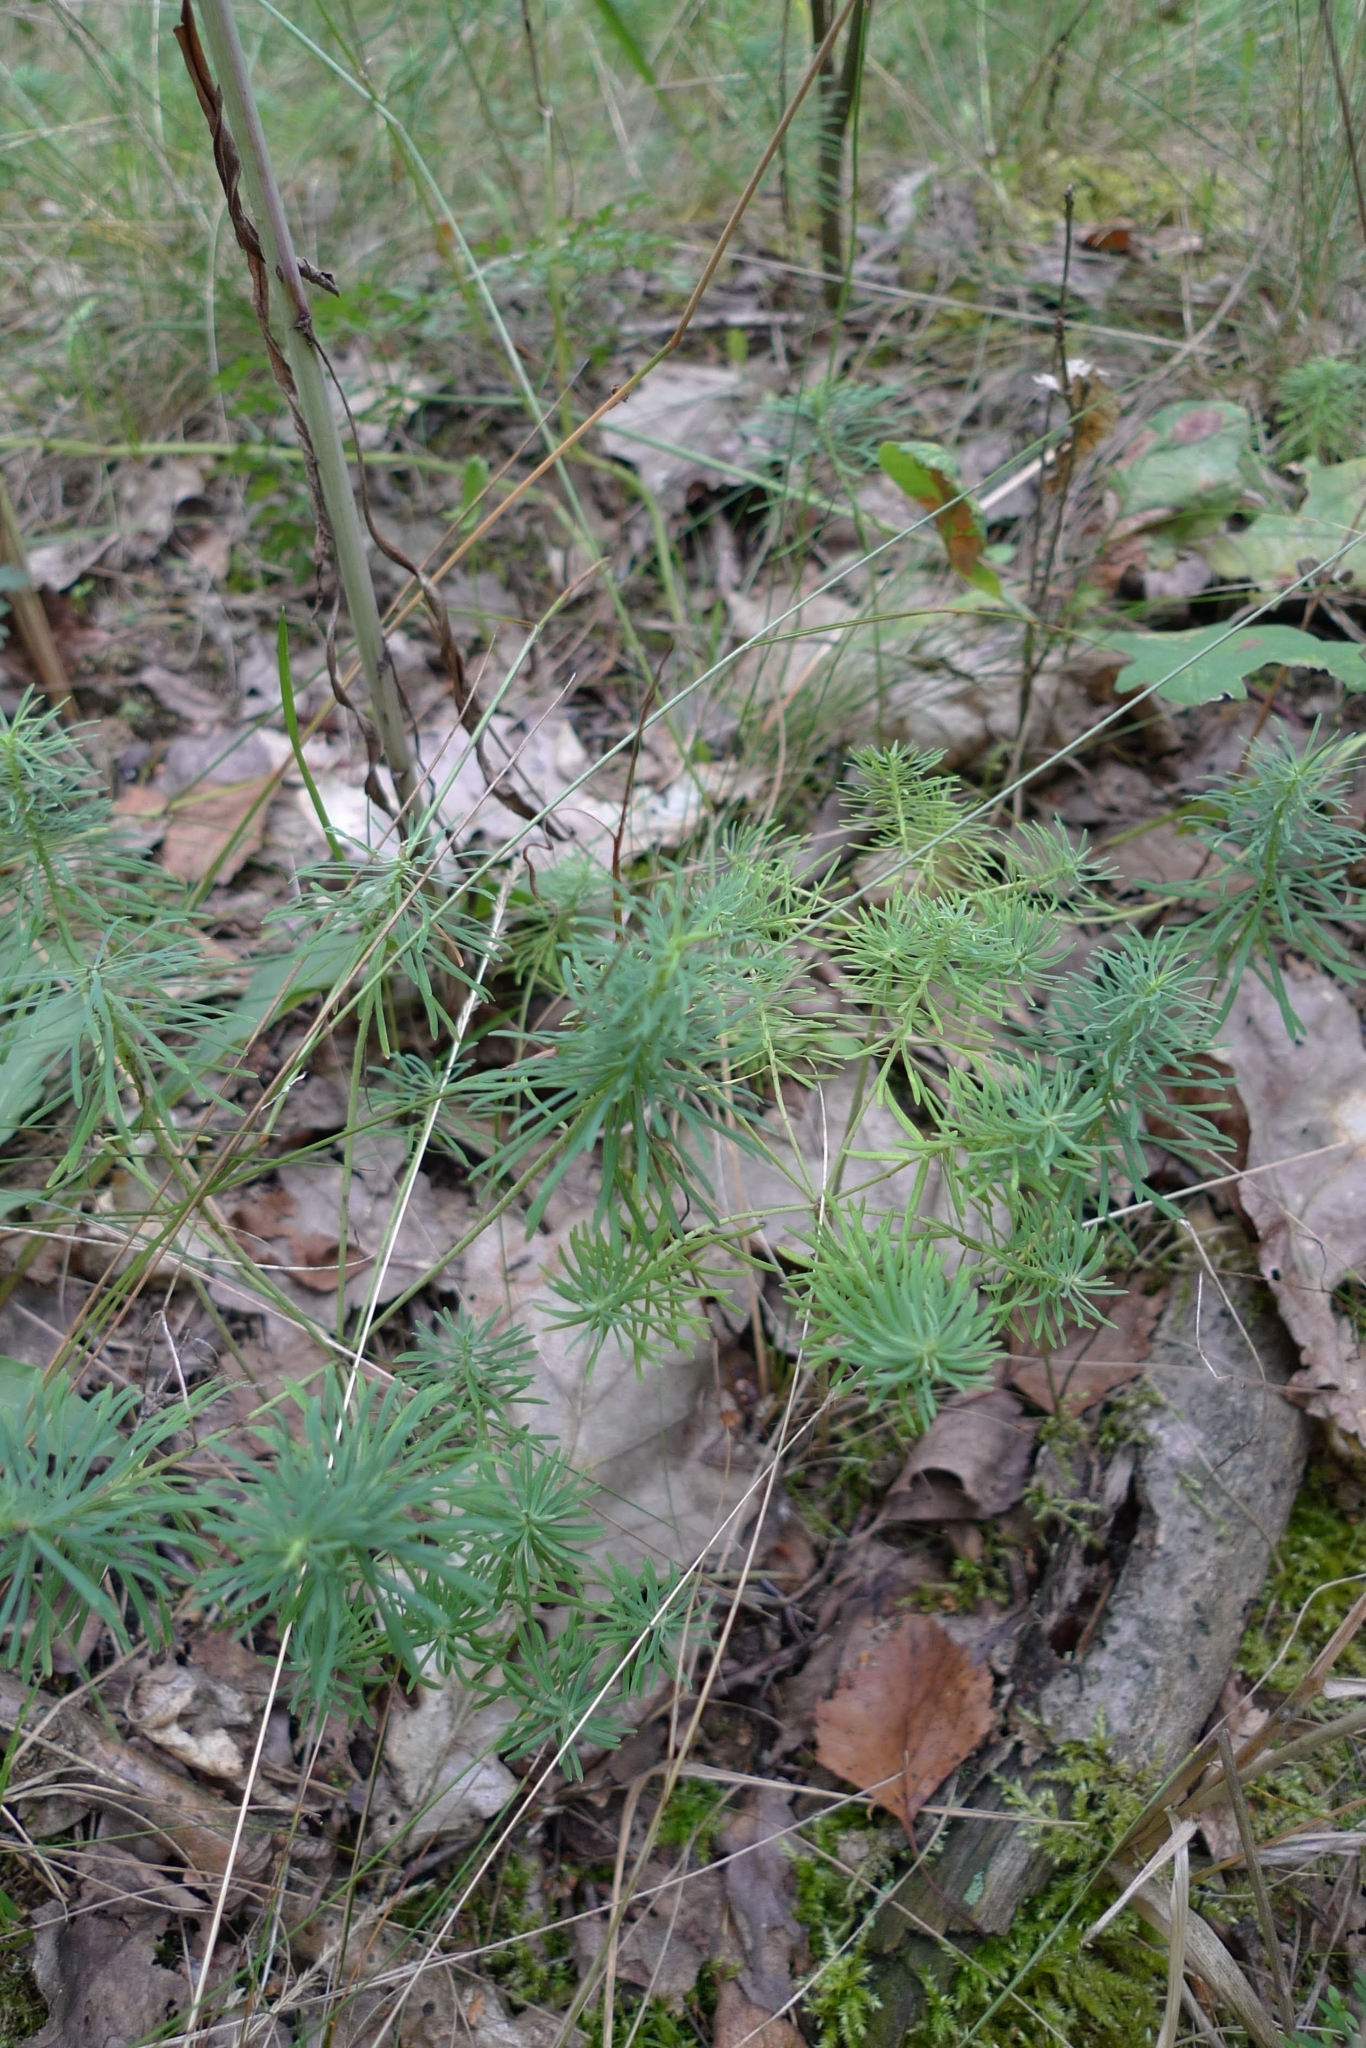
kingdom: Plantae
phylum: Tracheophyta
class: Magnoliopsida
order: Malpighiales
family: Euphorbiaceae
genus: Euphorbia
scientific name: Euphorbia cyparissias
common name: Cypress spurge
